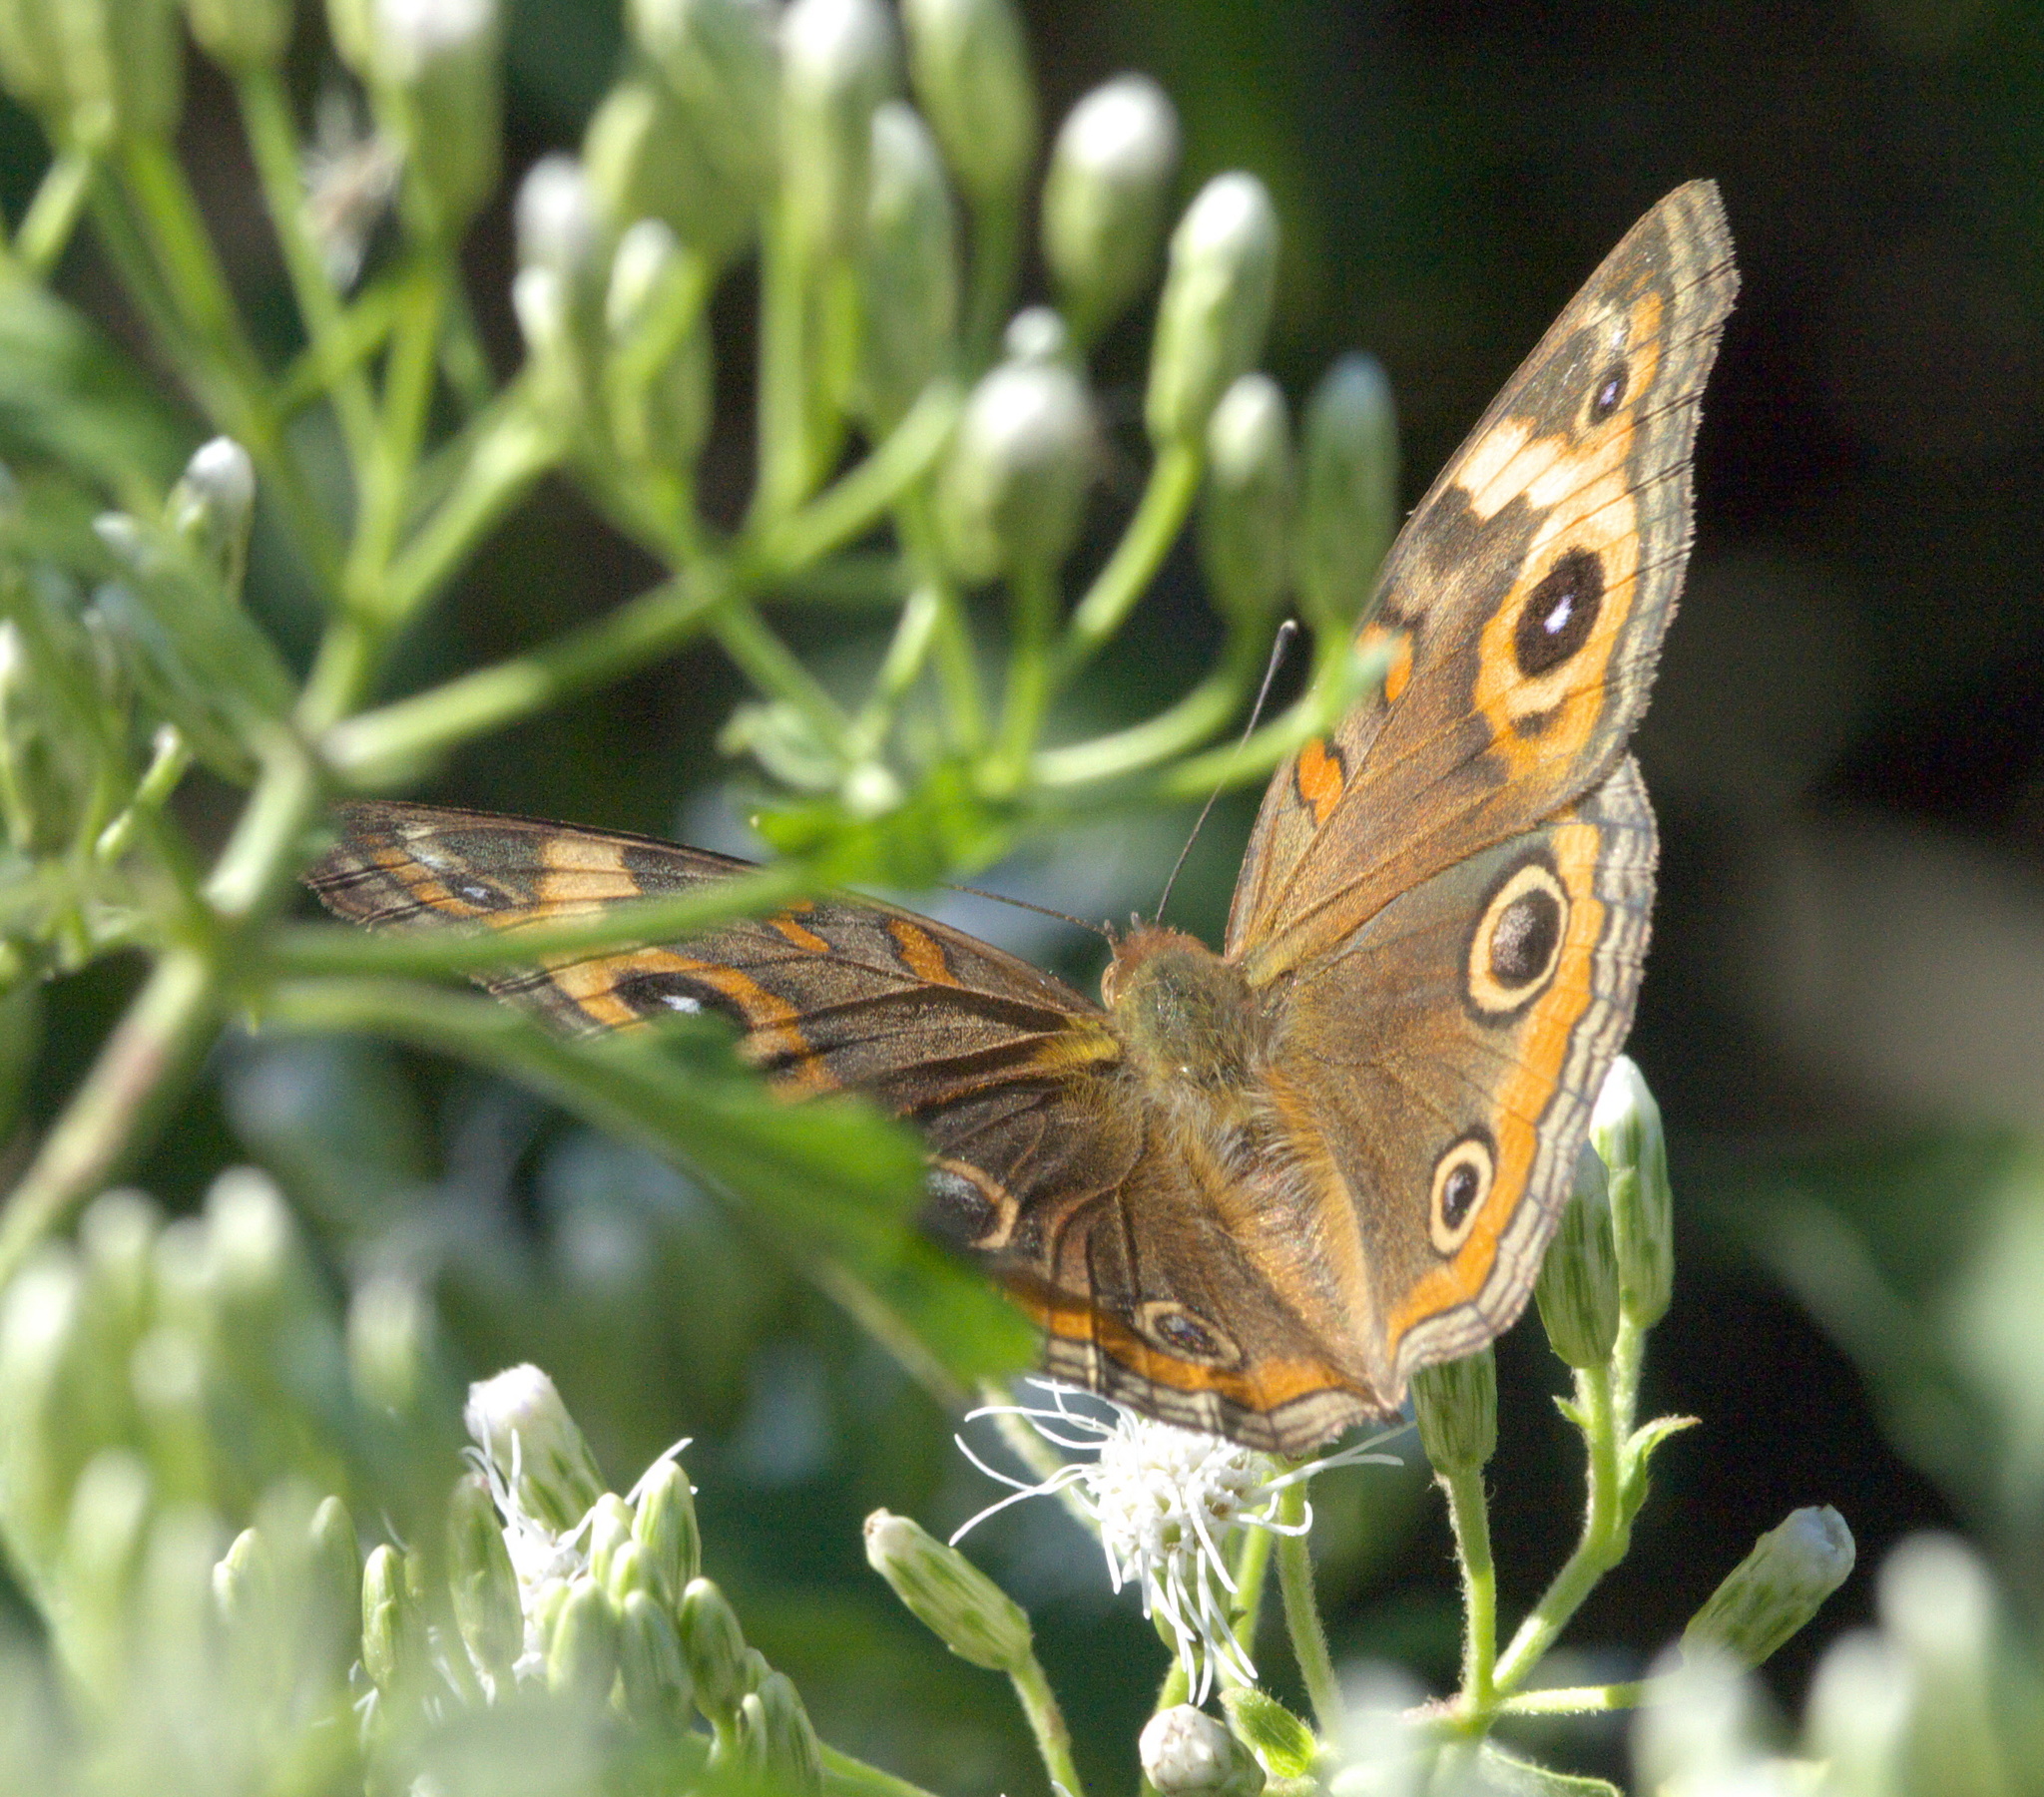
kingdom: Animalia
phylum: Arthropoda
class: Insecta
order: Lepidoptera
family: Nymphalidae
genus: Junonia
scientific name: Junonia neildi
